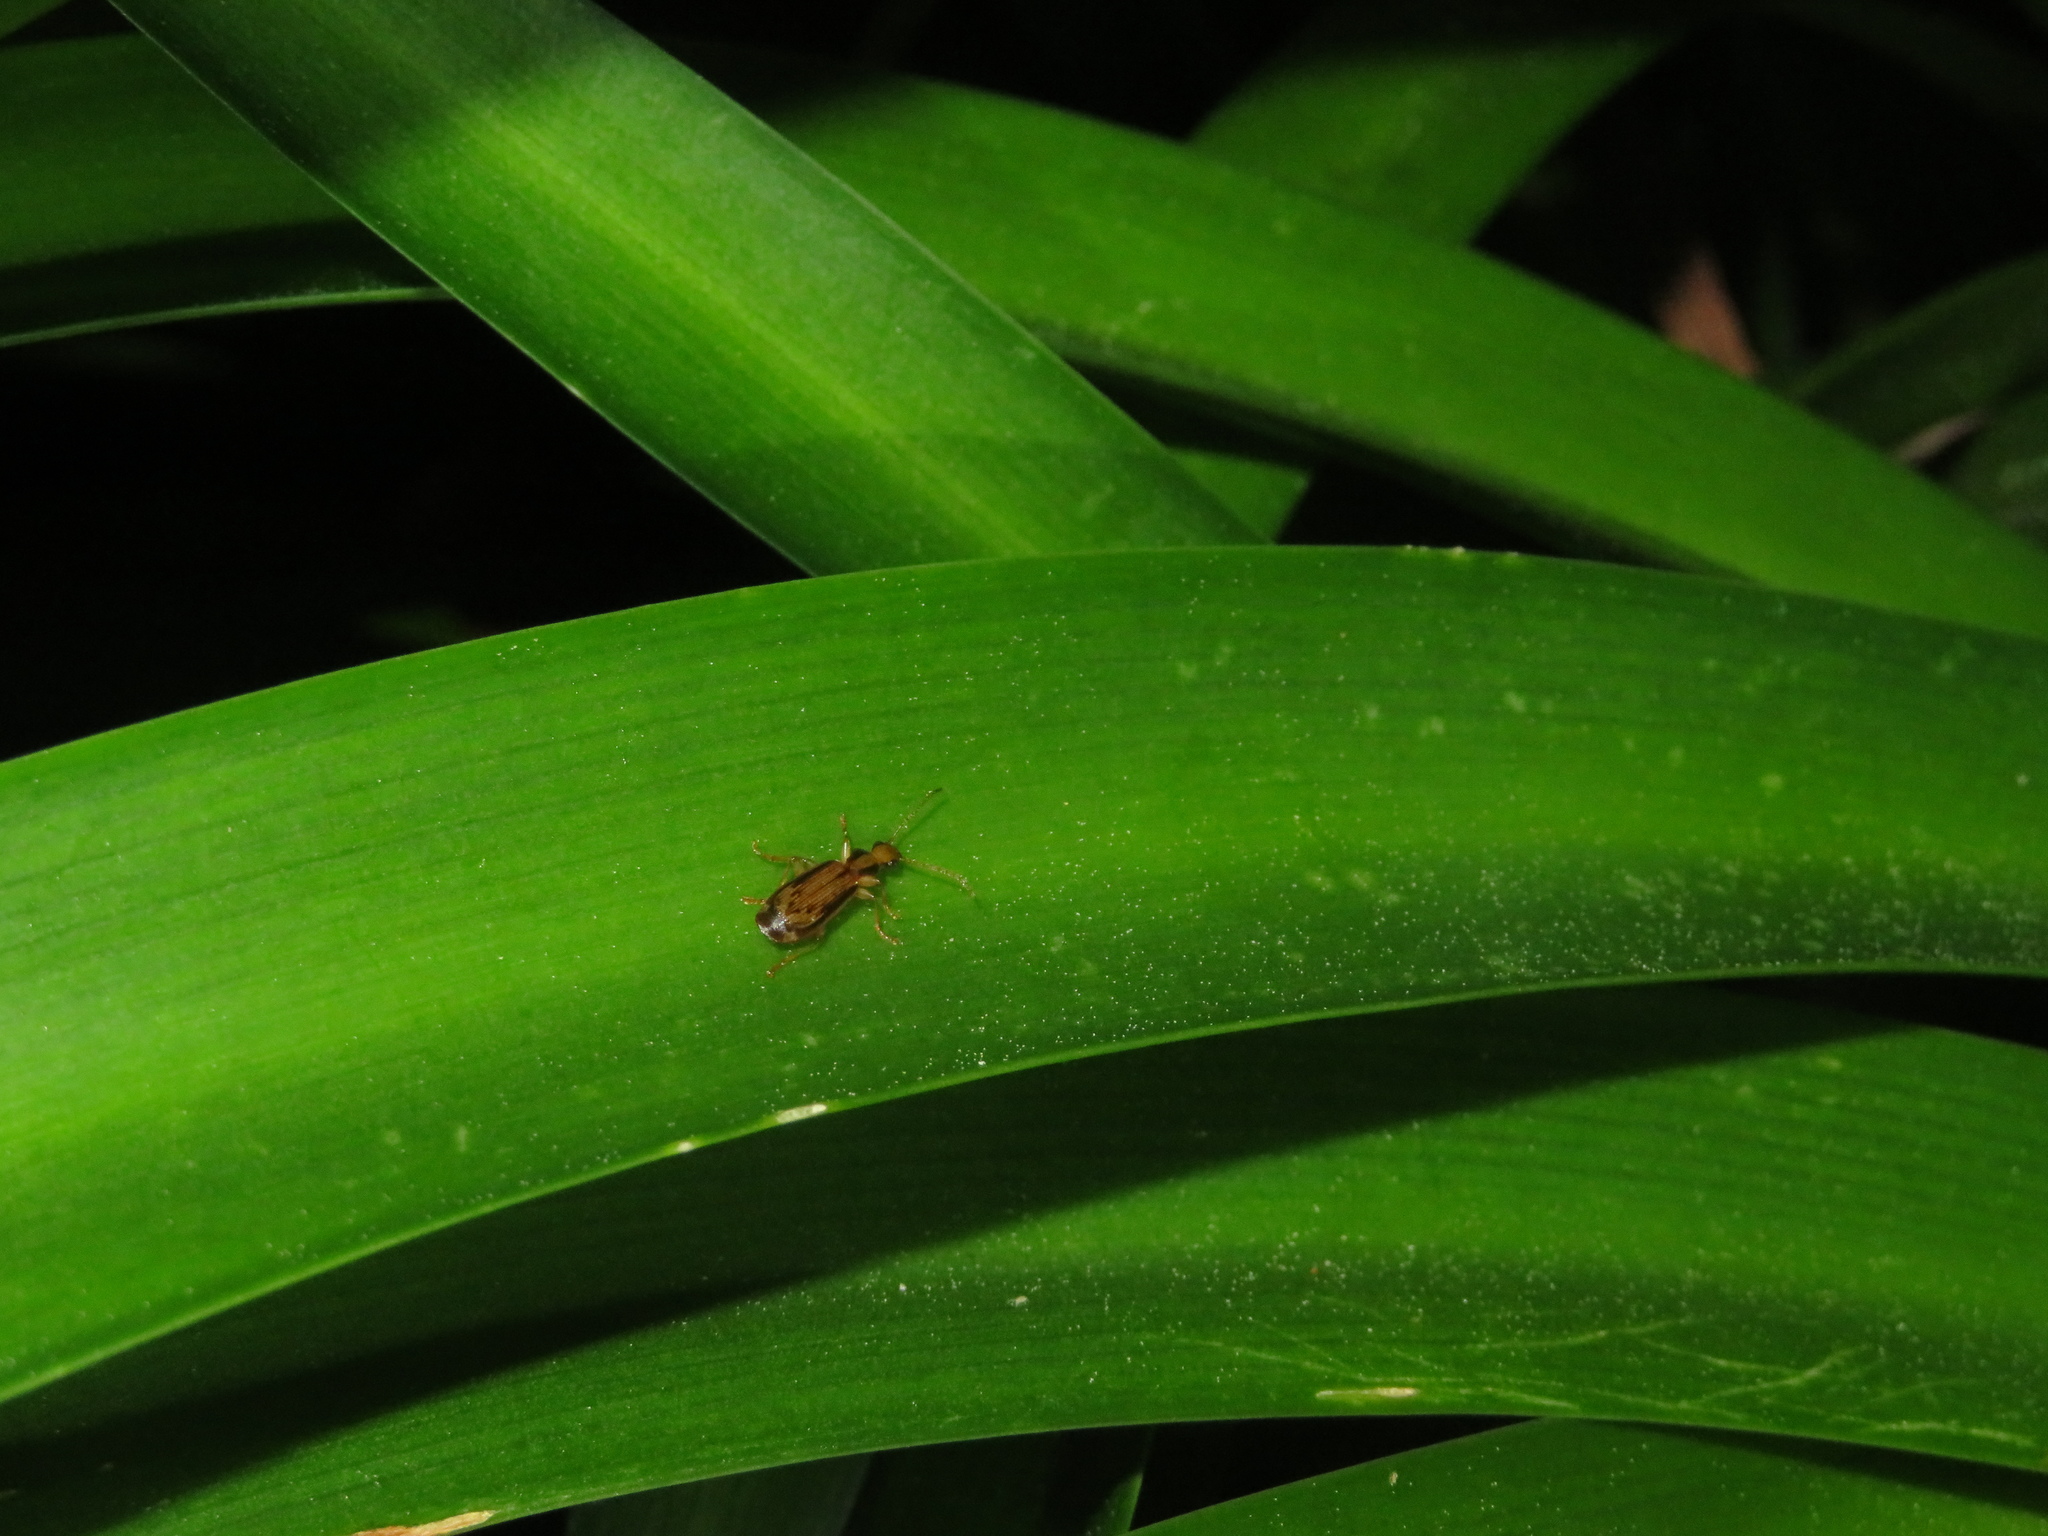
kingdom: Animalia
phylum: Arthropoda
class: Insecta
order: Coleoptera
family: Carabidae
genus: Demetrida
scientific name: Demetrida lineella
